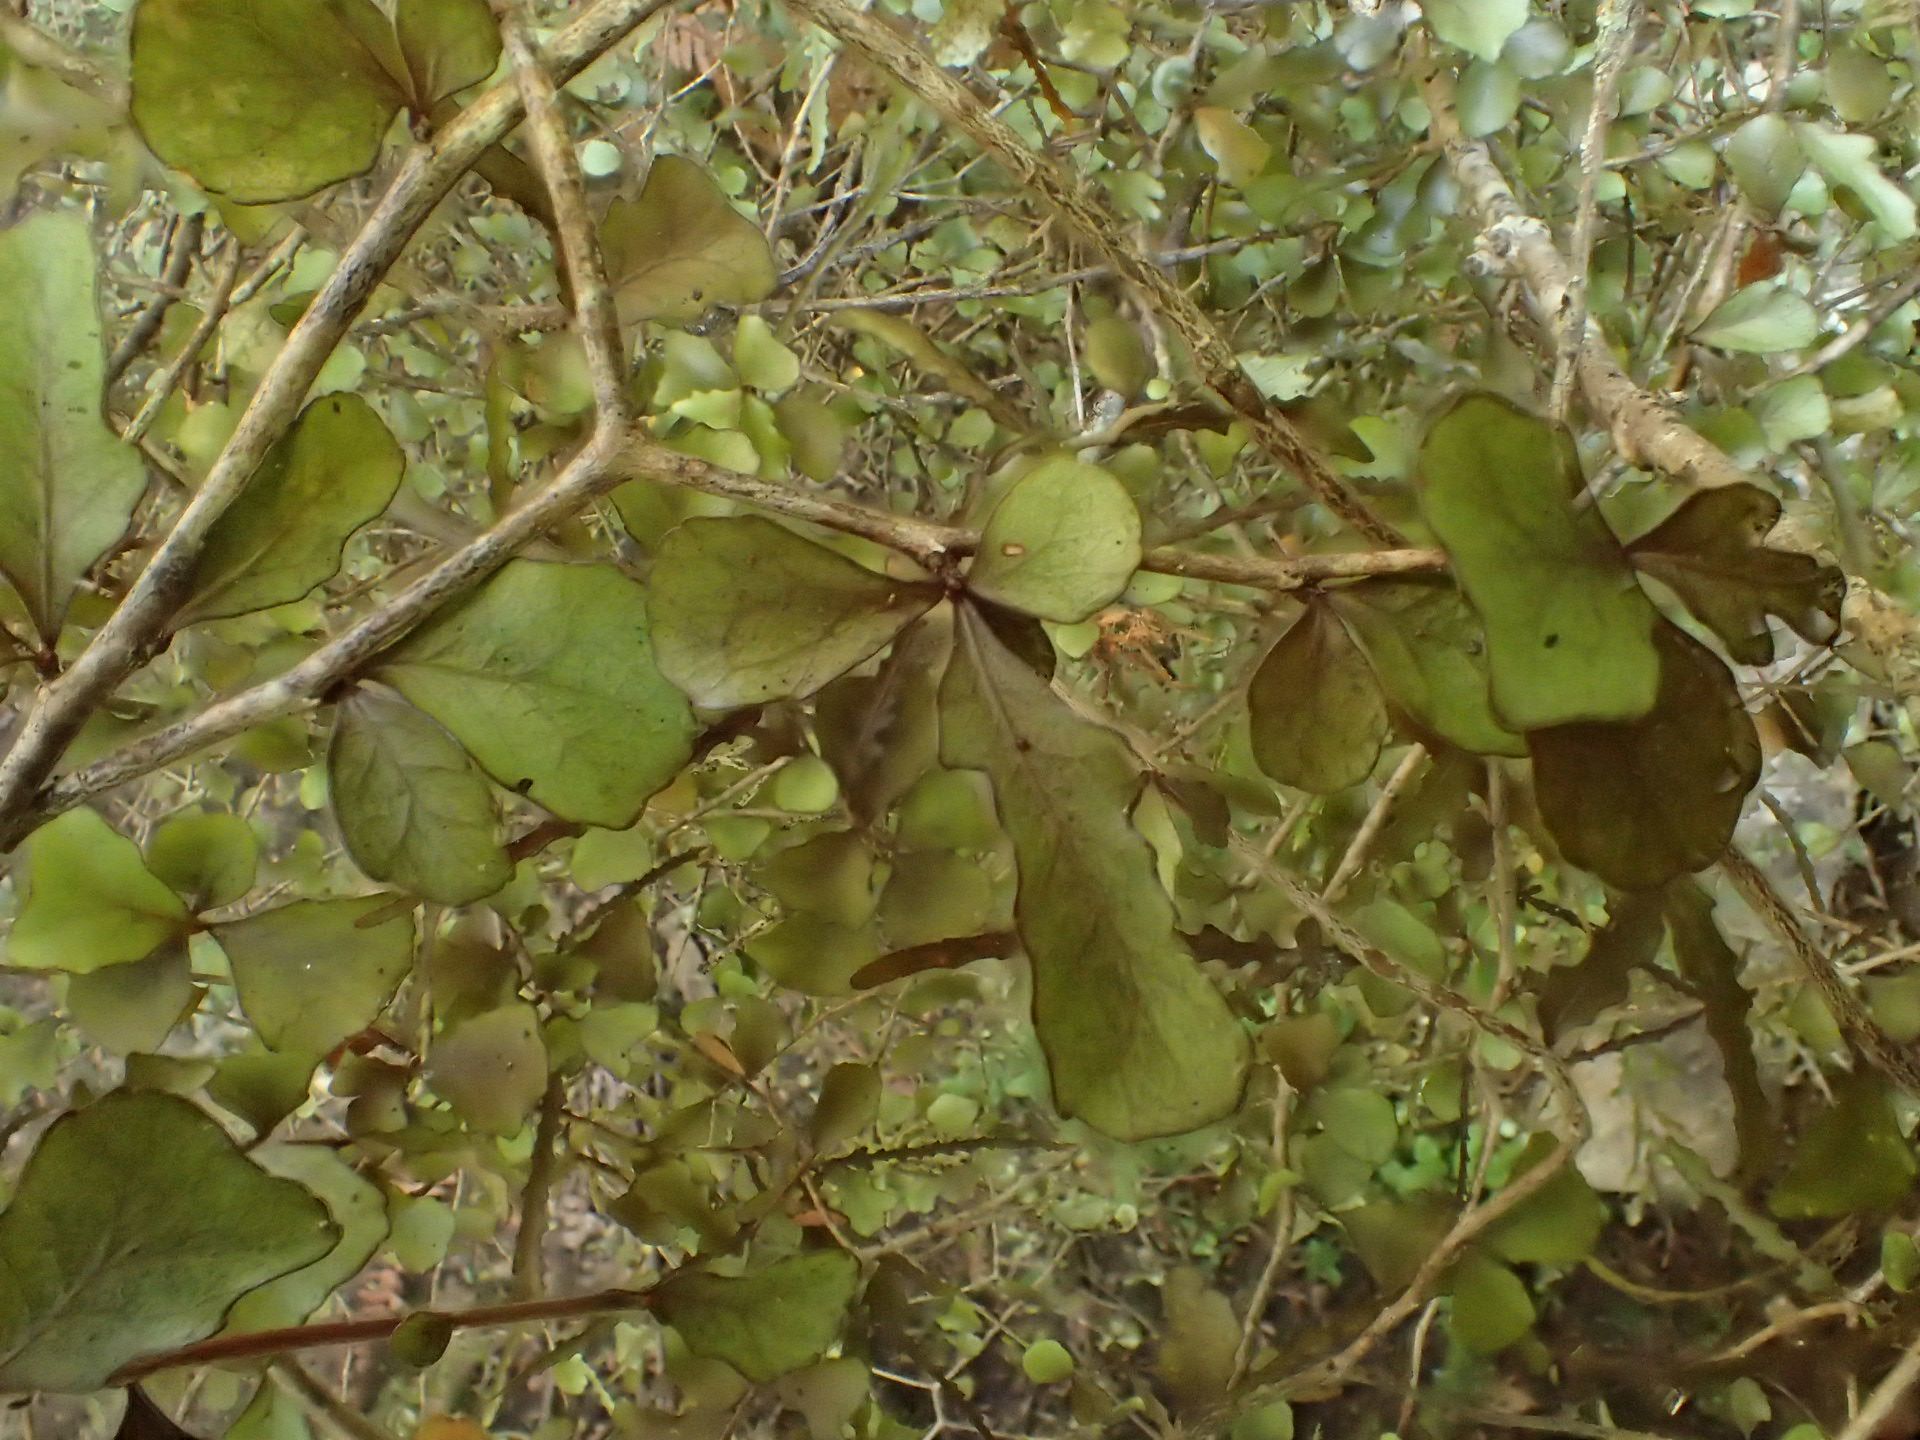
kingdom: Plantae
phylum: Tracheophyta
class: Magnoliopsida
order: Oxalidales
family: Elaeocarpaceae
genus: Elaeocarpus
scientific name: Elaeocarpus hookerianus
